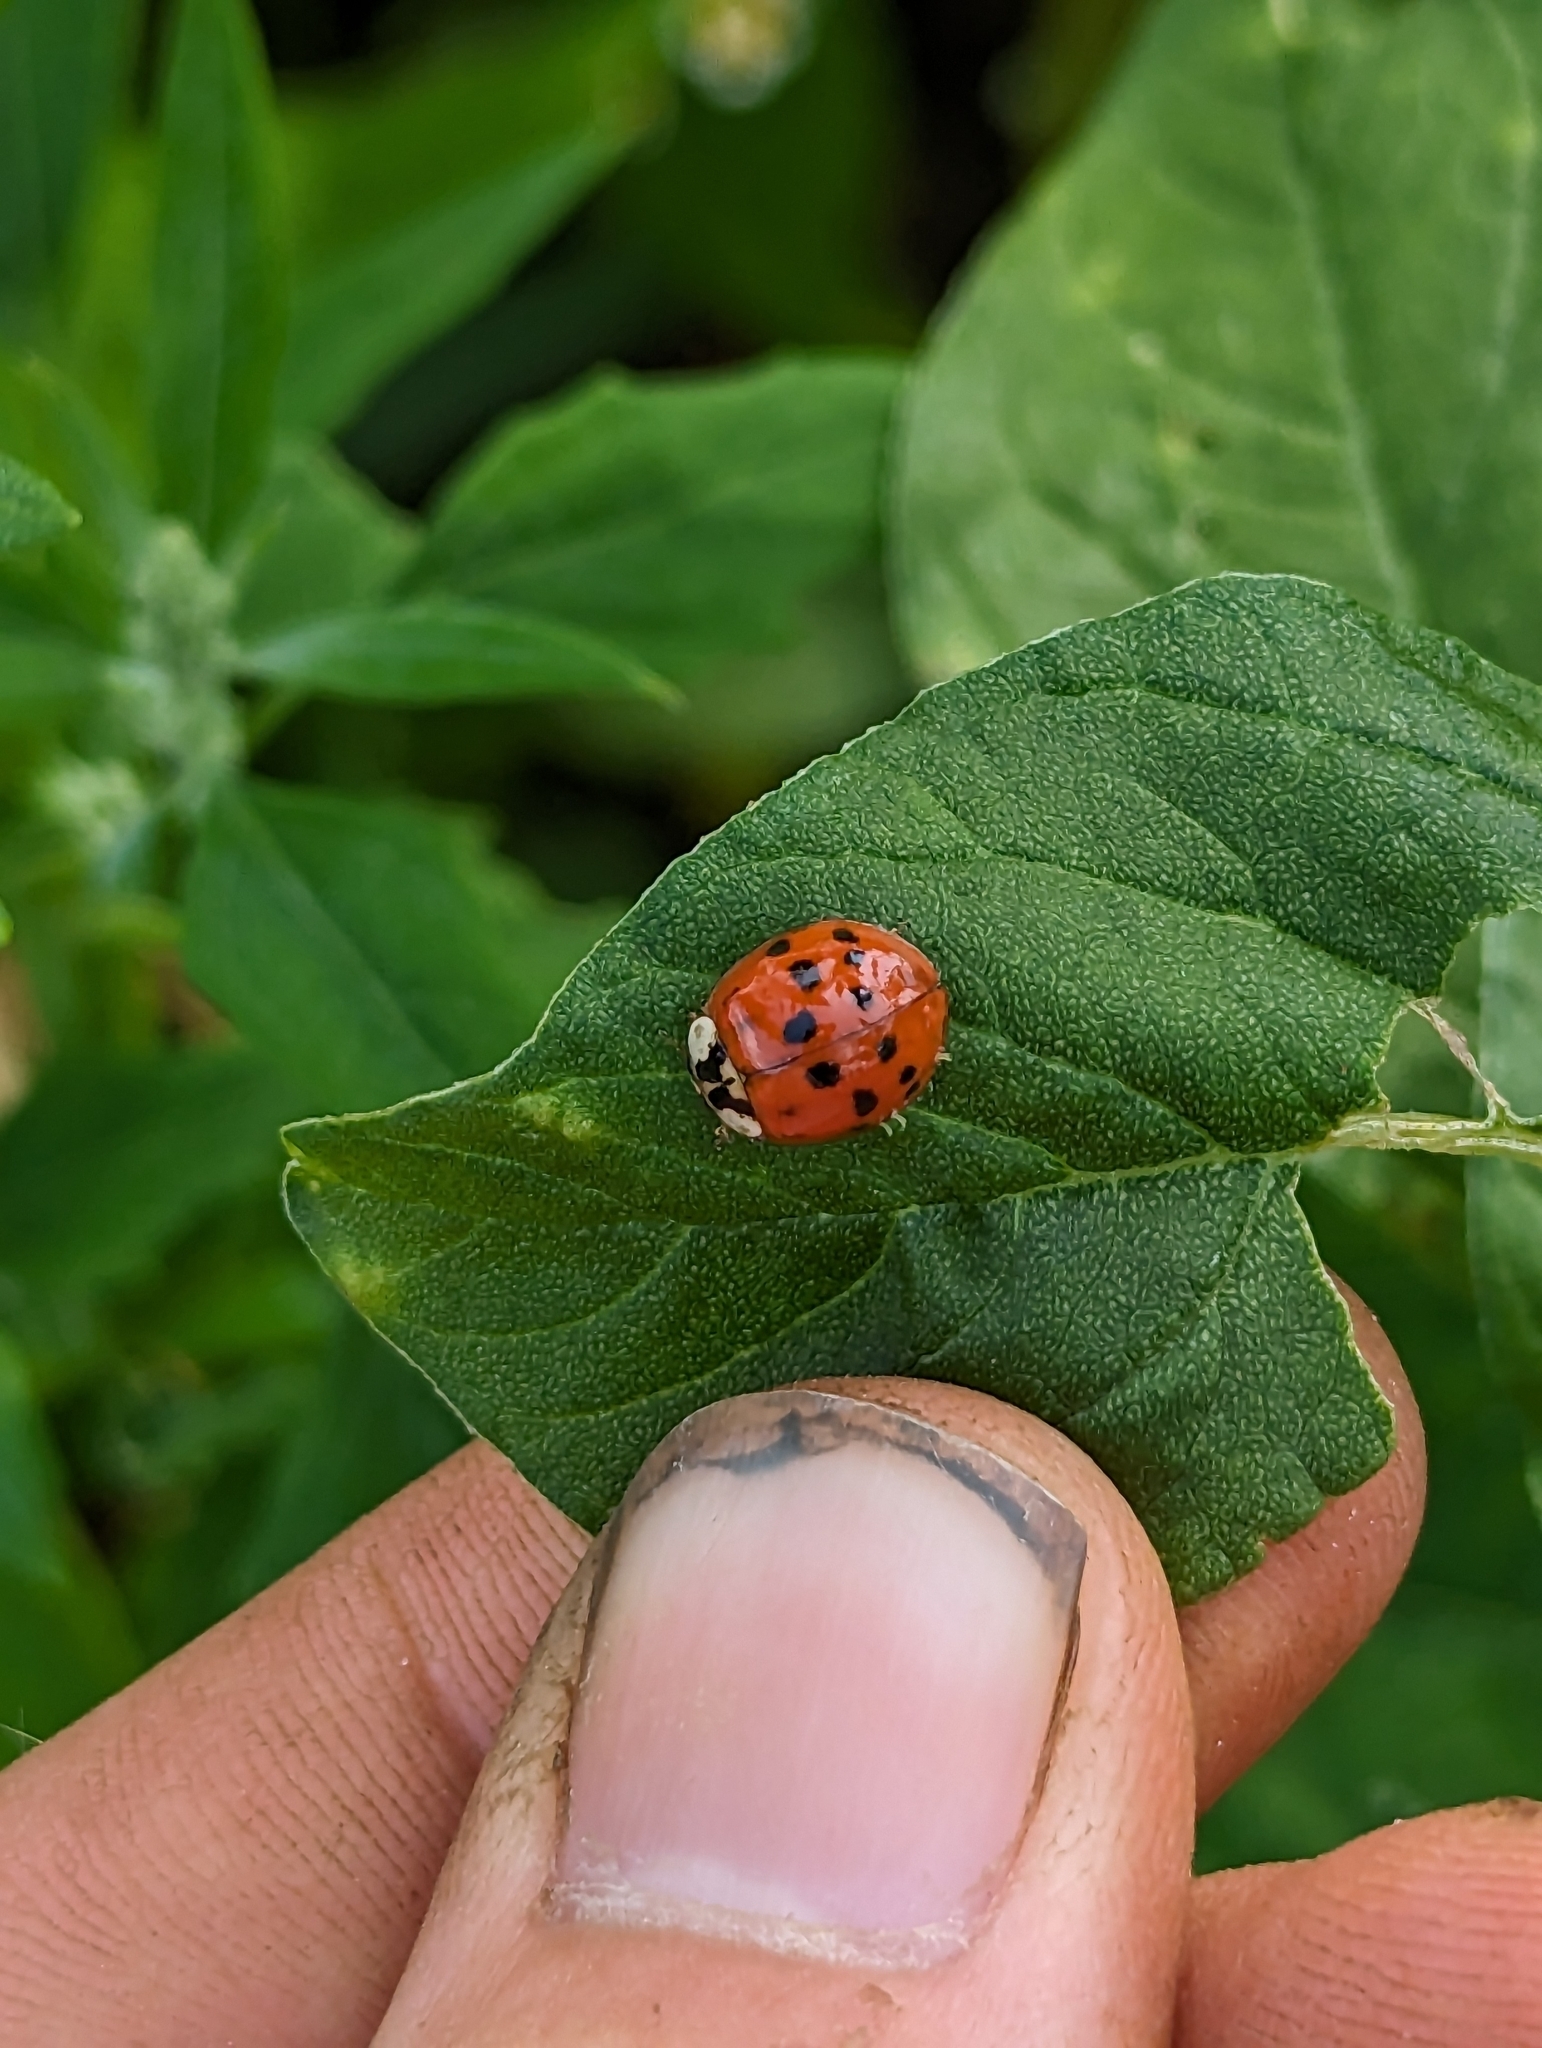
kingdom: Animalia
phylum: Arthropoda
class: Insecta
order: Coleoptera
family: Coccinellidae
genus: Harmonia
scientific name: Harmonia axyridis
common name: Harlequin ladybird
